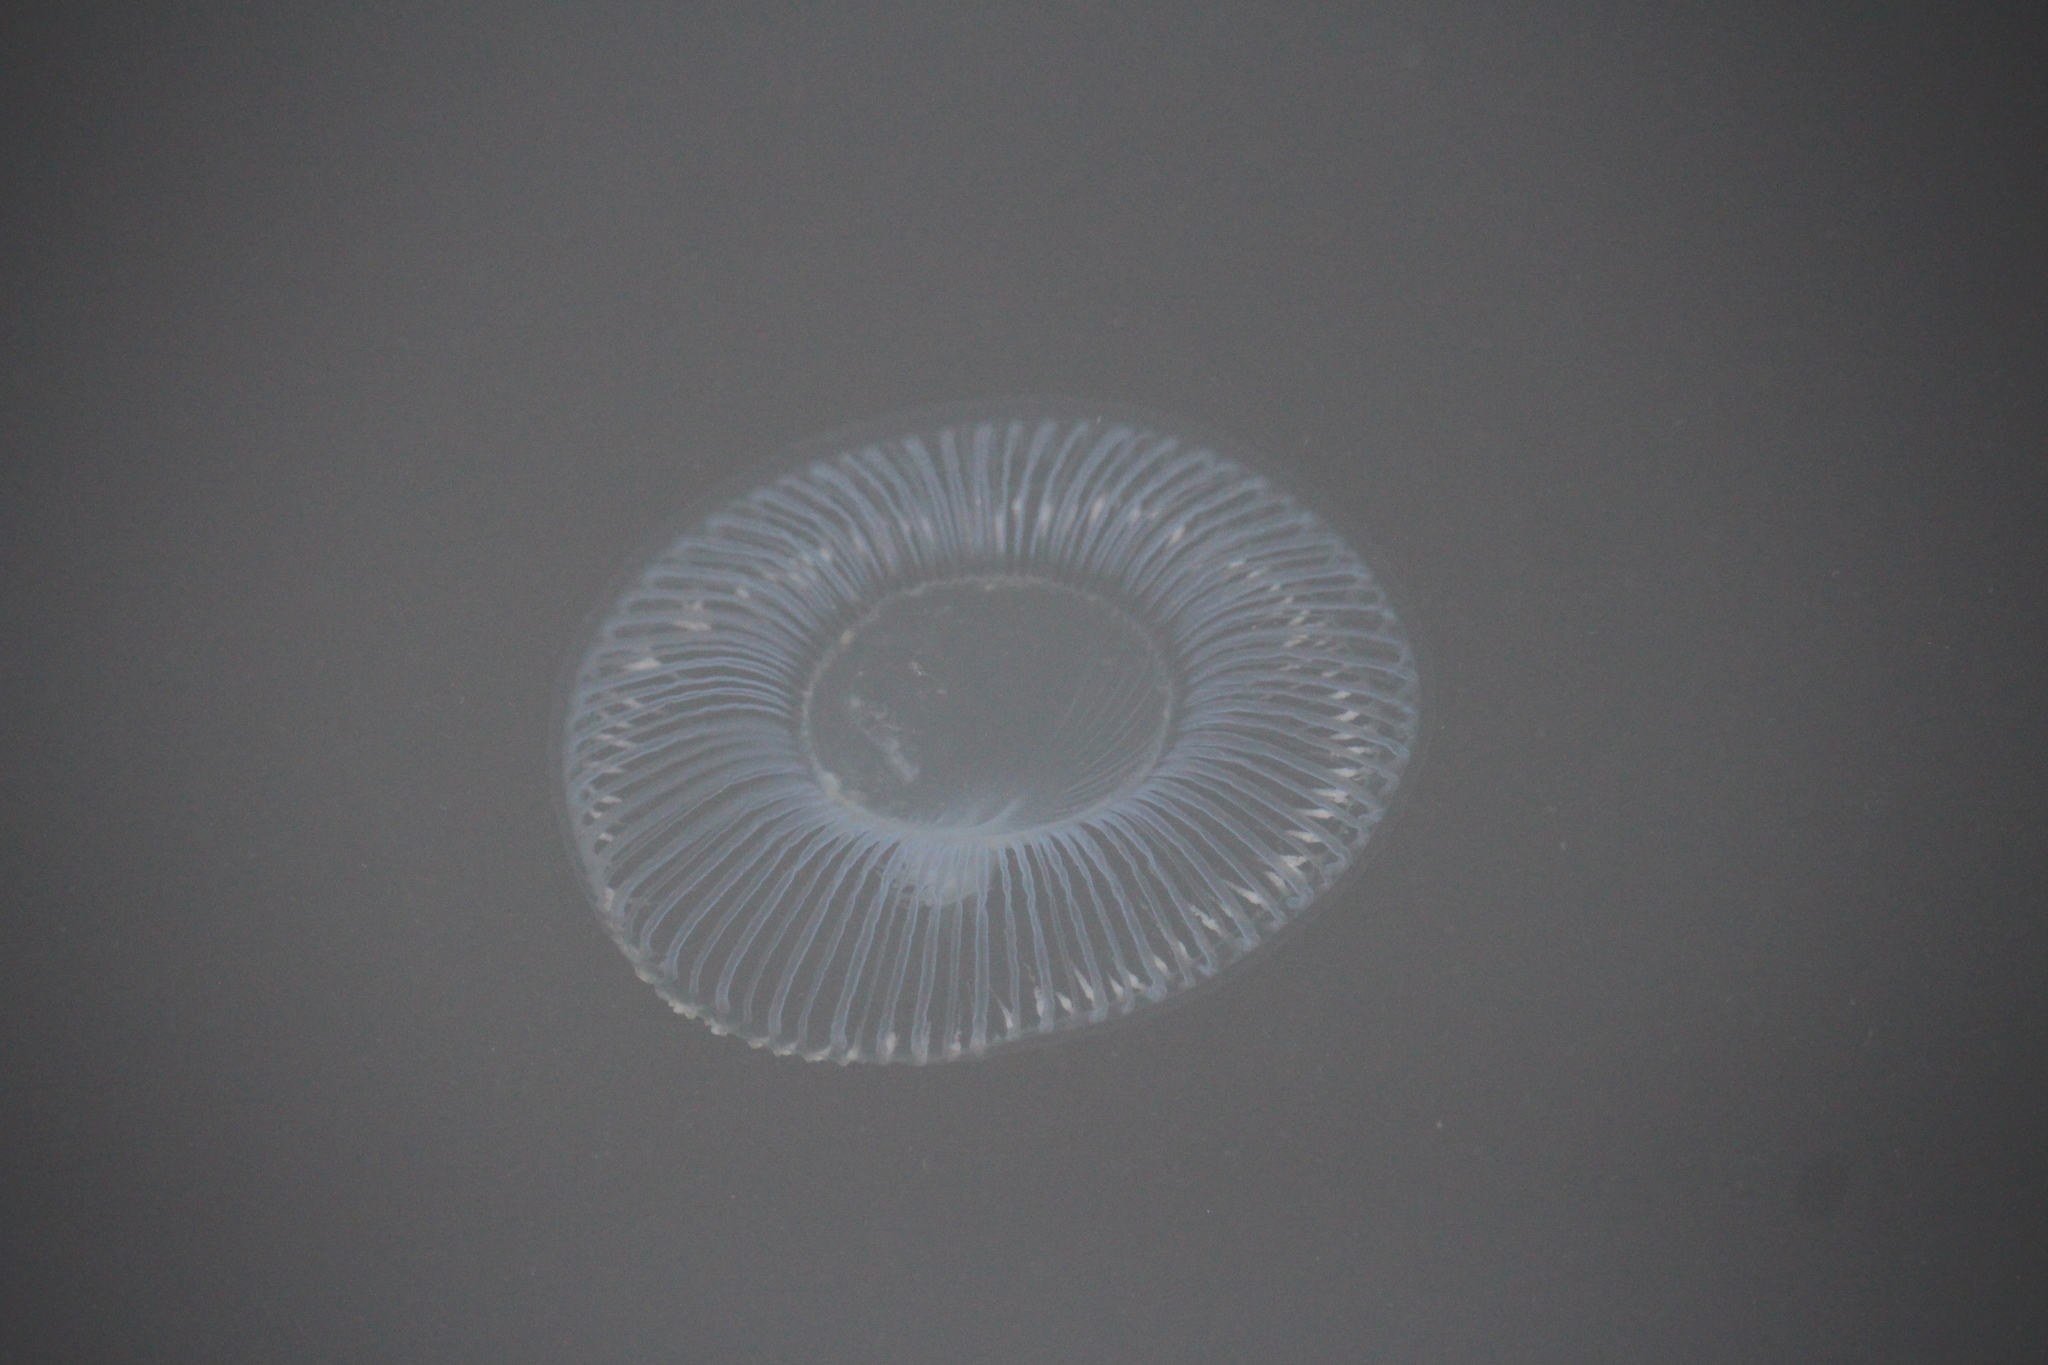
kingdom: Animalia
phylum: Cnidaria
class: Hydrozoa
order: Leptothecata
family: Aequoreidae
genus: Aequorea
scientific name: Aequorea victoria
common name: Water jellyfish
